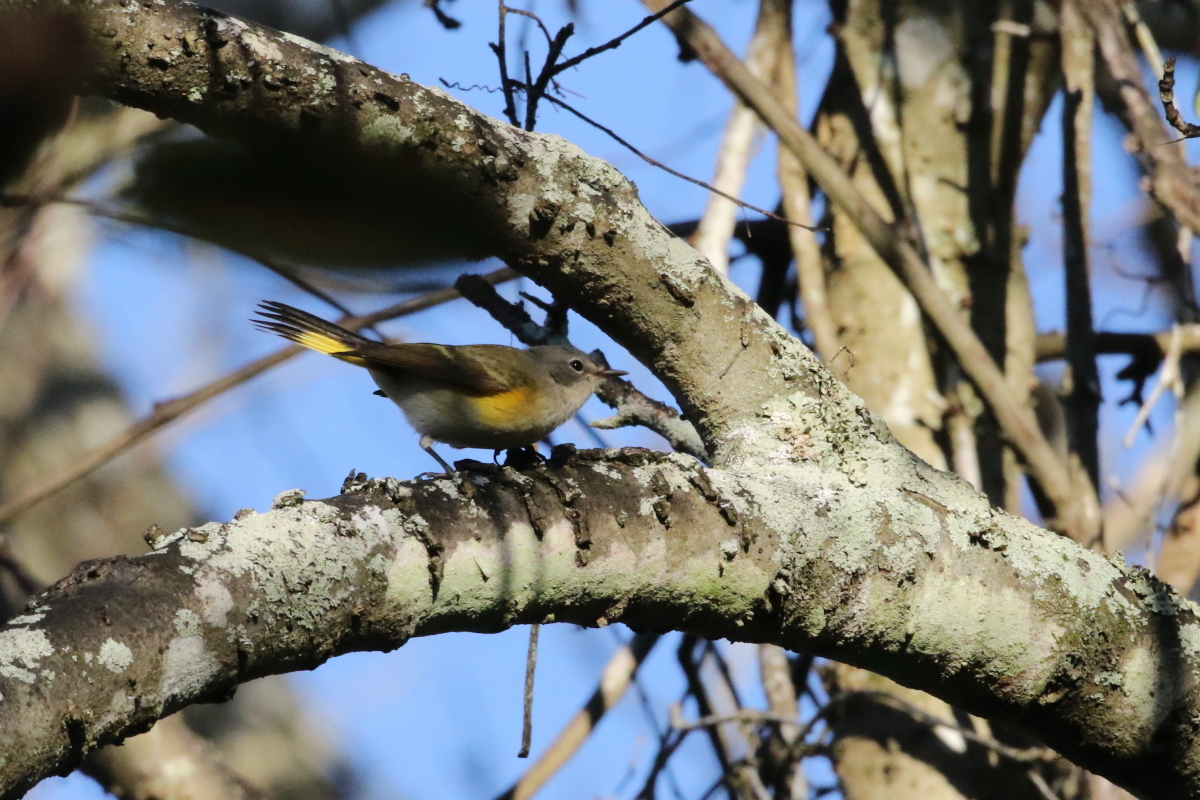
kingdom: Animalia
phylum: Chordata
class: Aves
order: Passeriformes
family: Parulidae
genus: Setophaga
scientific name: Setophaga ruticilla
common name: American redstart
